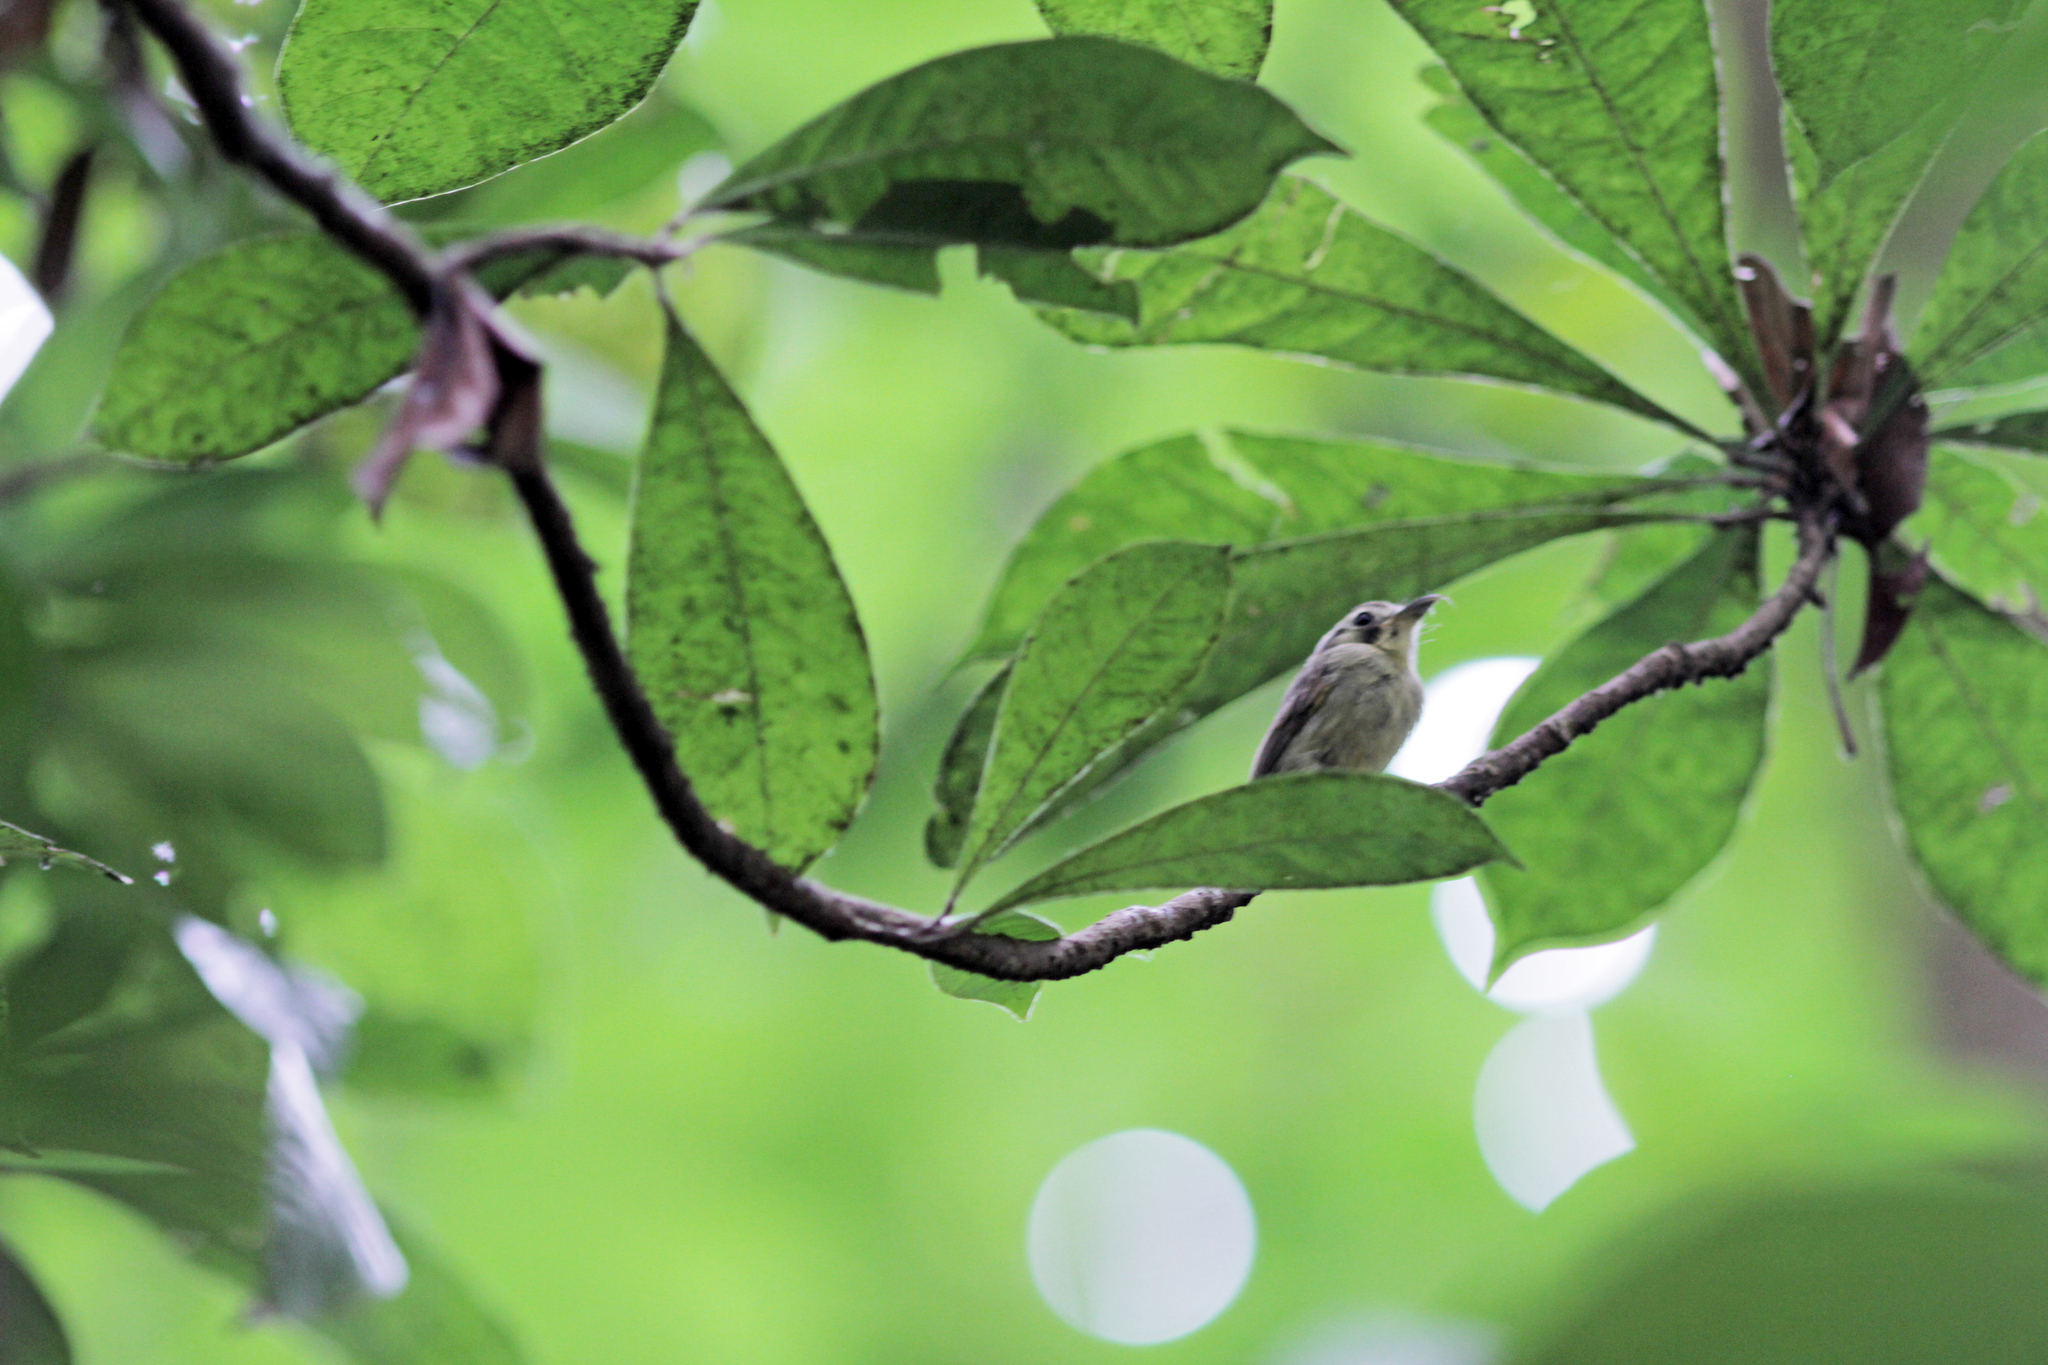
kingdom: Animalia
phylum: Chordata
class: Aves
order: Passeriformes
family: Tyrannidae
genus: Platyrinchus
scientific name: Platyrinchus coronatus
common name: Golden-crowned spadebill
